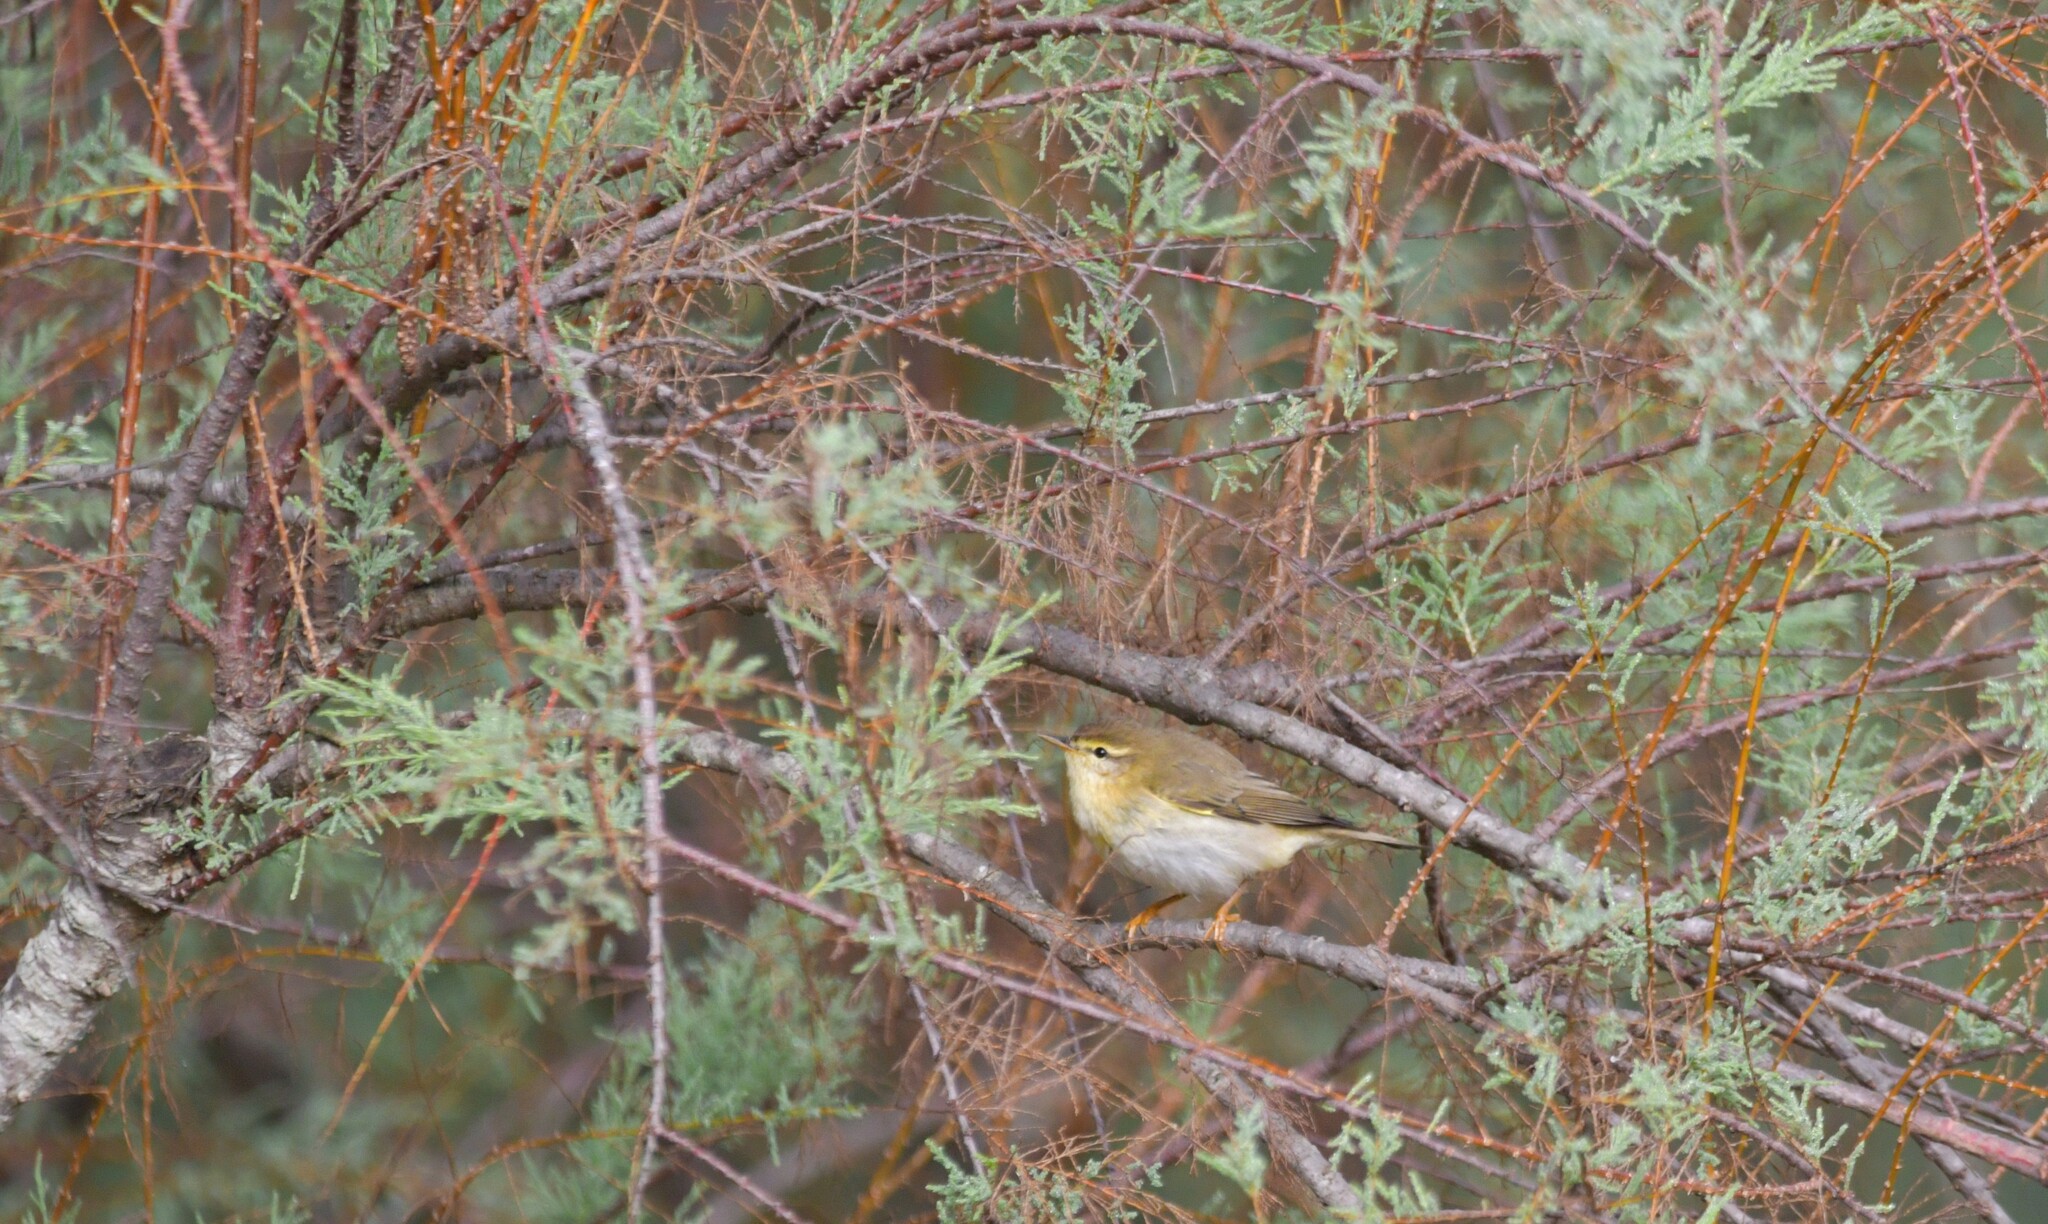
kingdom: Animalia
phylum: Chordata
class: Aves
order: Passeriformes
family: Phylloscopidae
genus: Phylloscopus
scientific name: Phylloscopus trochilus
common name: Willow warbler
